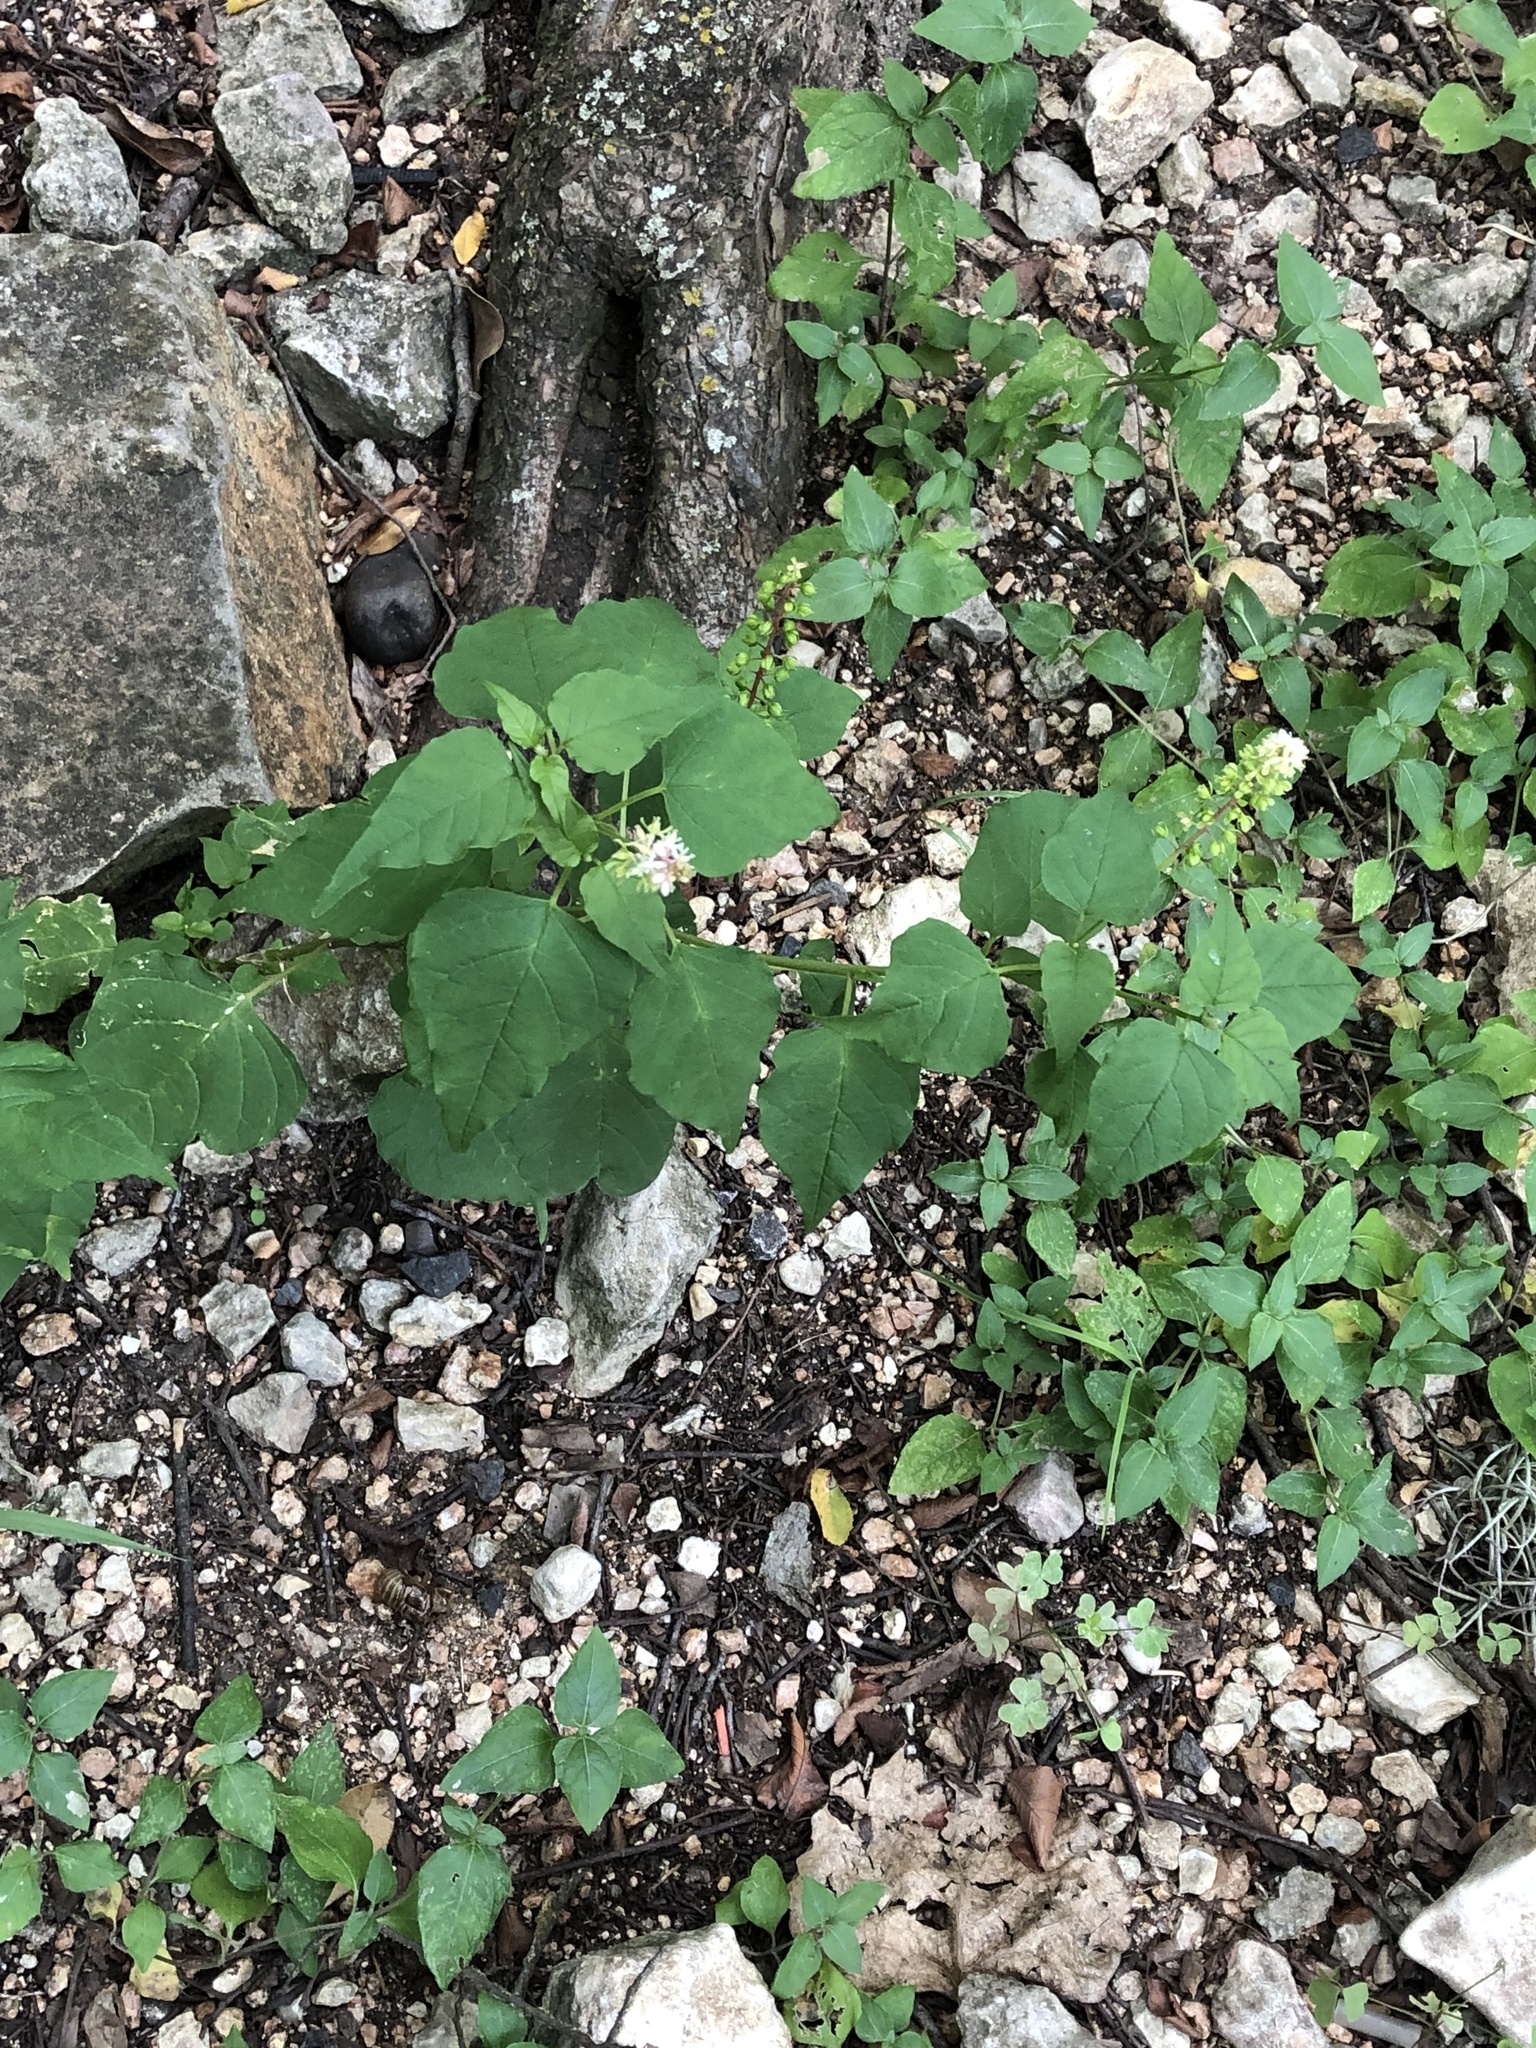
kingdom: Plantae
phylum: Tracheophyta
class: Magnoliopsida
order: Caryophyllales
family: Phytolaccaceae
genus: Rivina
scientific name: Rivina humilis
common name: Rougeplant
